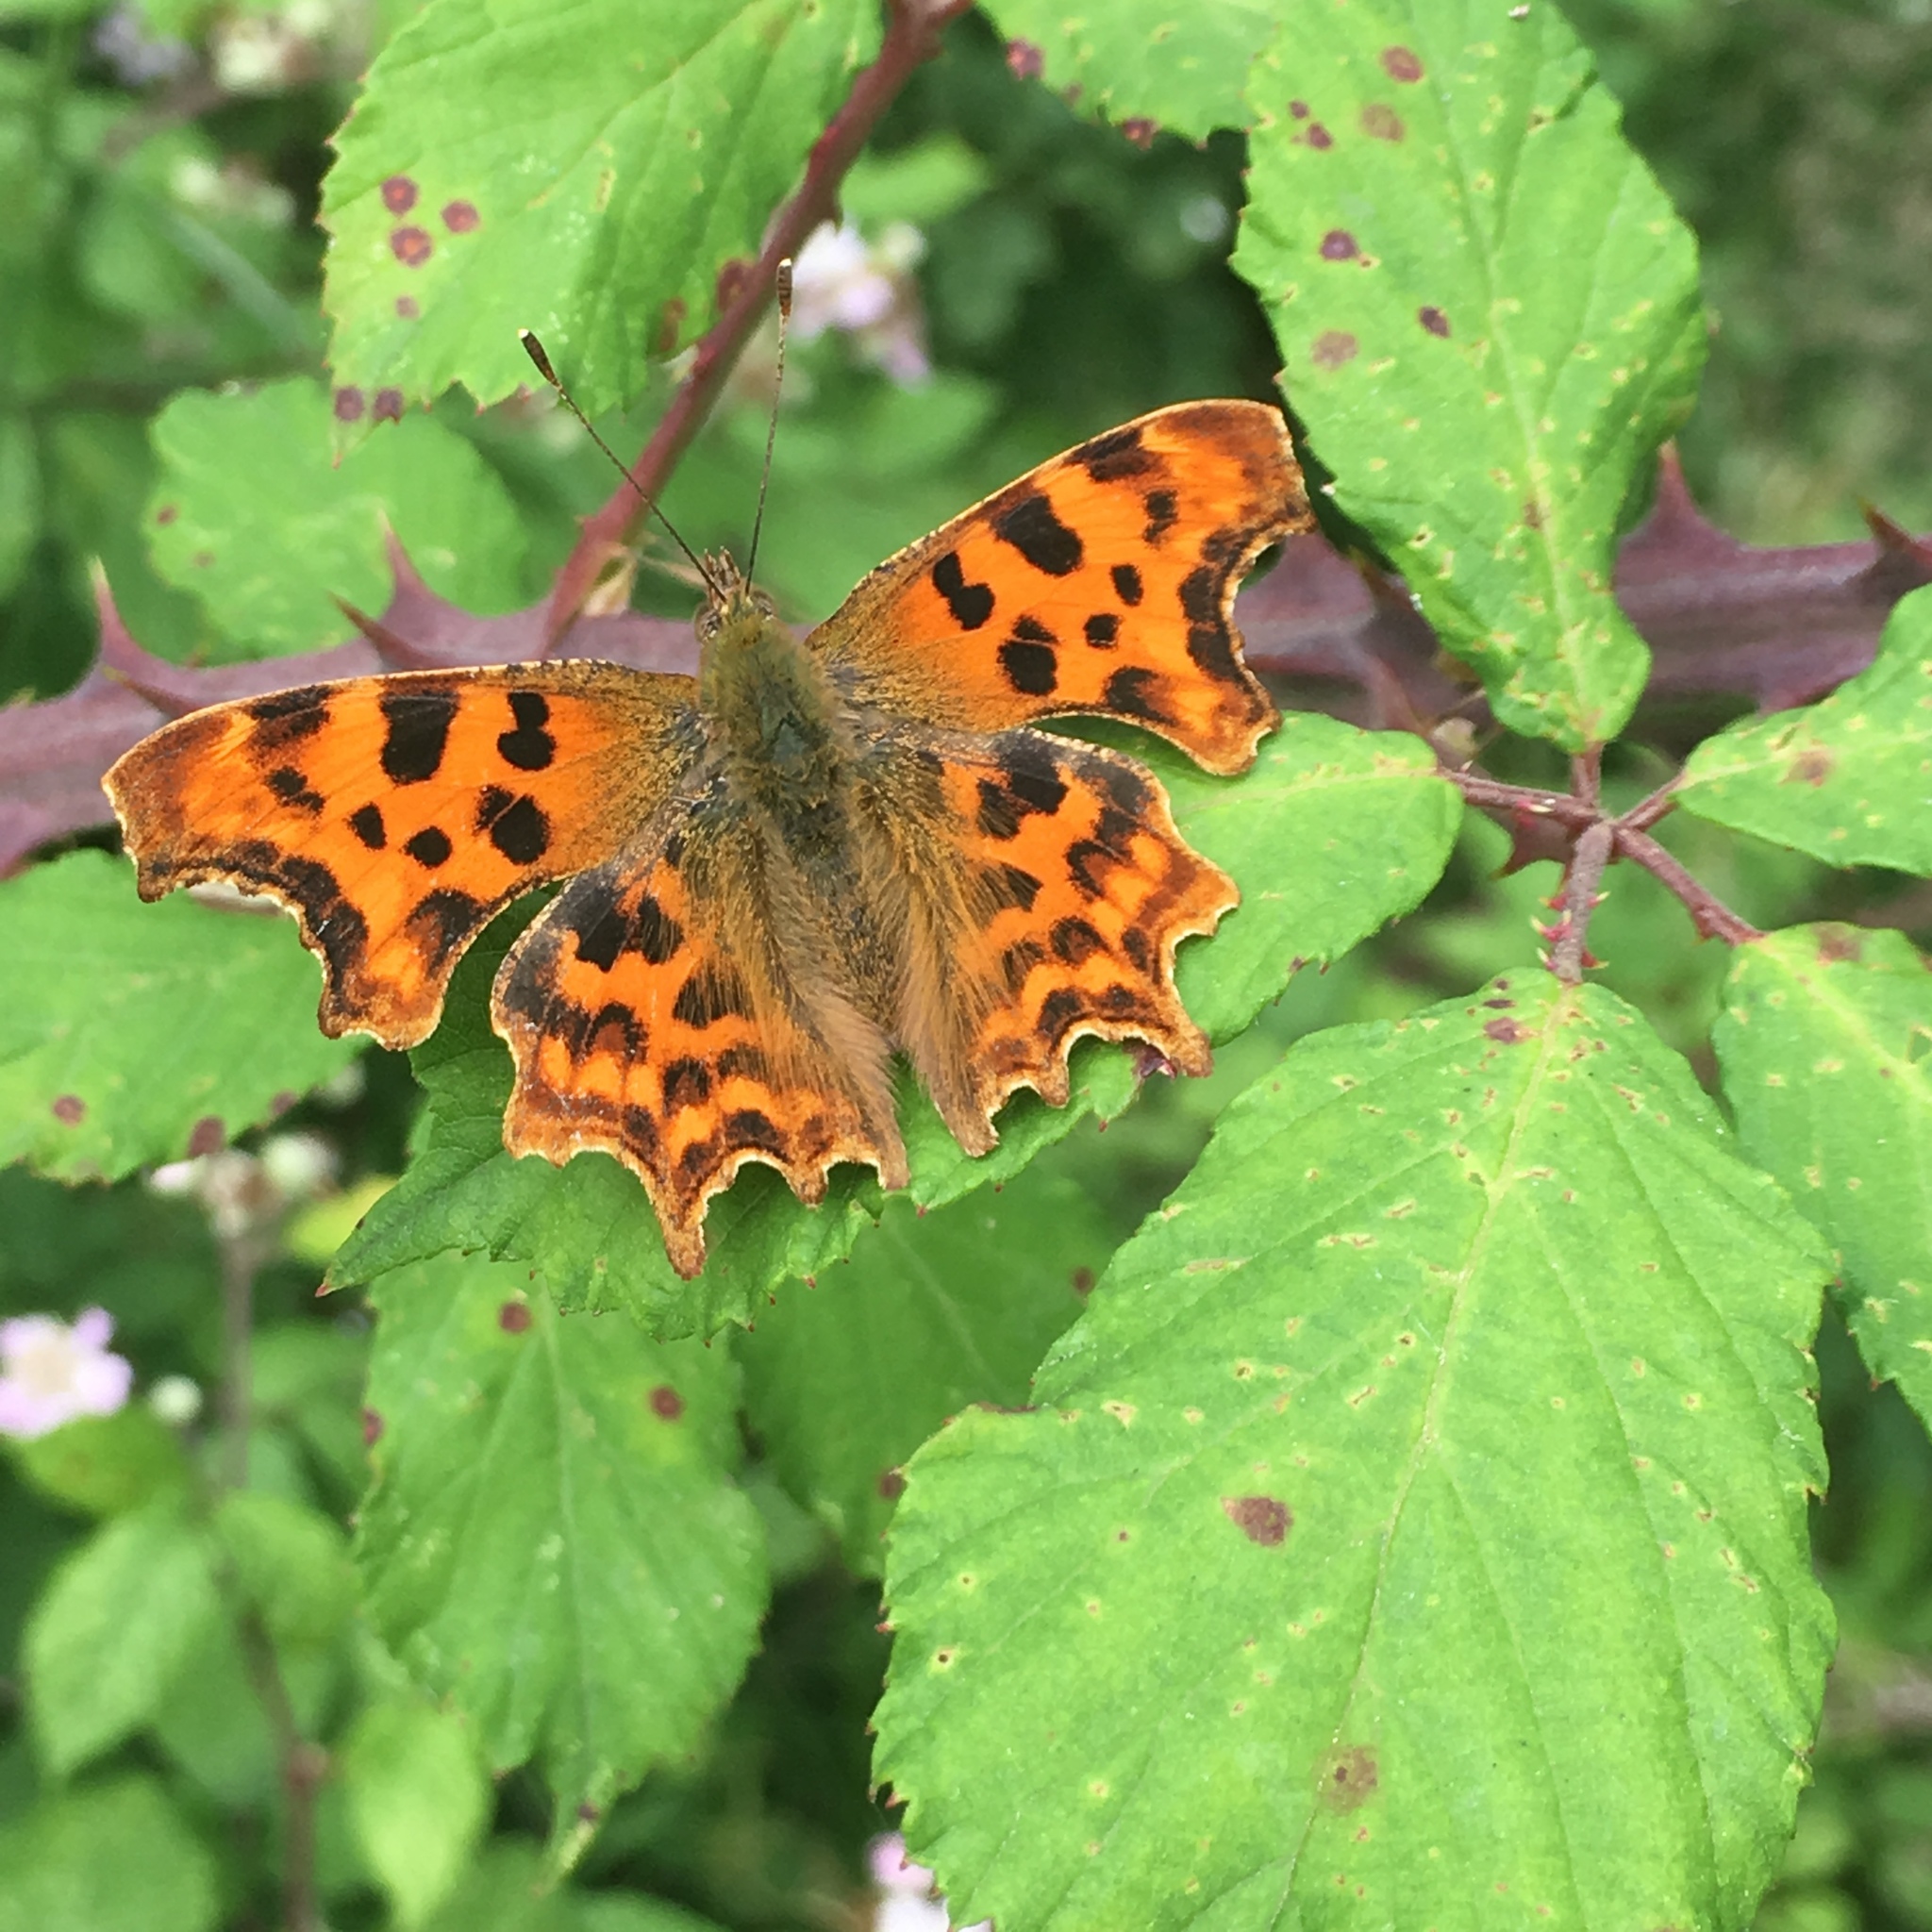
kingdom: Animalia
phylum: Arthropoda
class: Insecta
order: Lepidoptera
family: Nymphalidae
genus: Polygonia
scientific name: Polygonia c-album
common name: Comma
